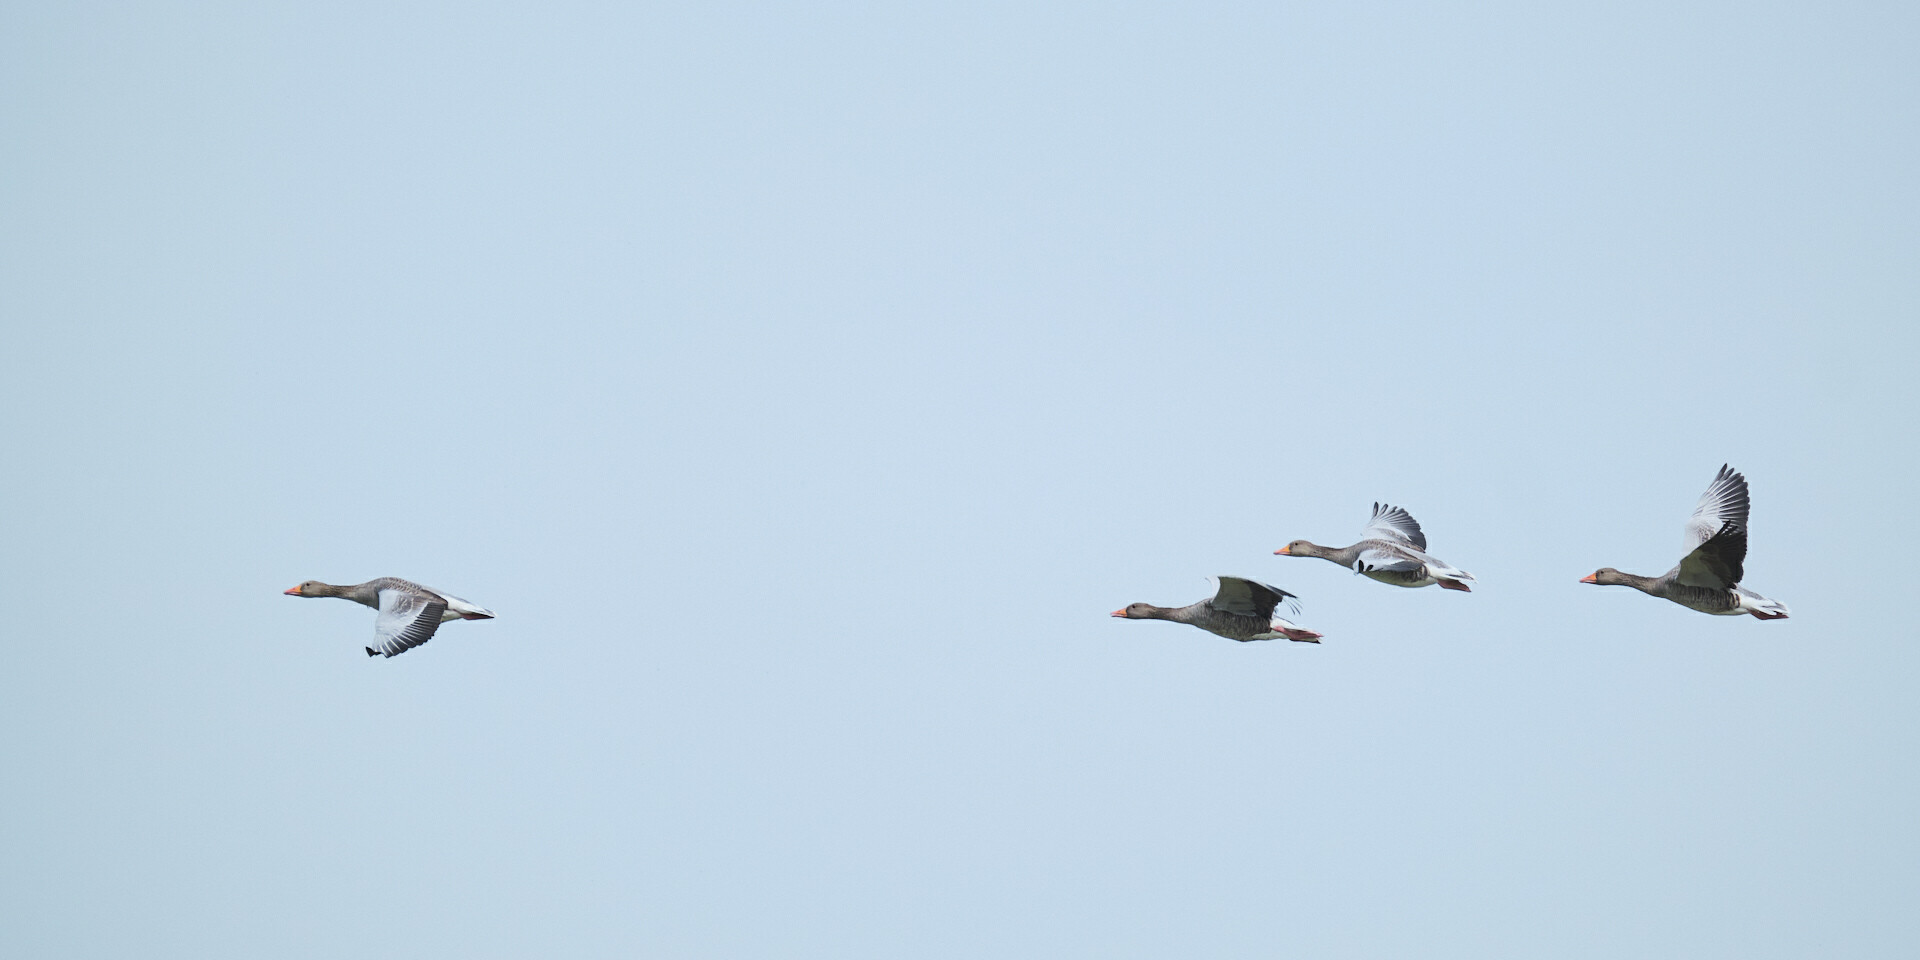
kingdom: Animalia
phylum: Chordata
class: Aves
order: Anseriformes
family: Anatidae
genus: Anser
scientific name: Anser anser
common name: Greylag goose
